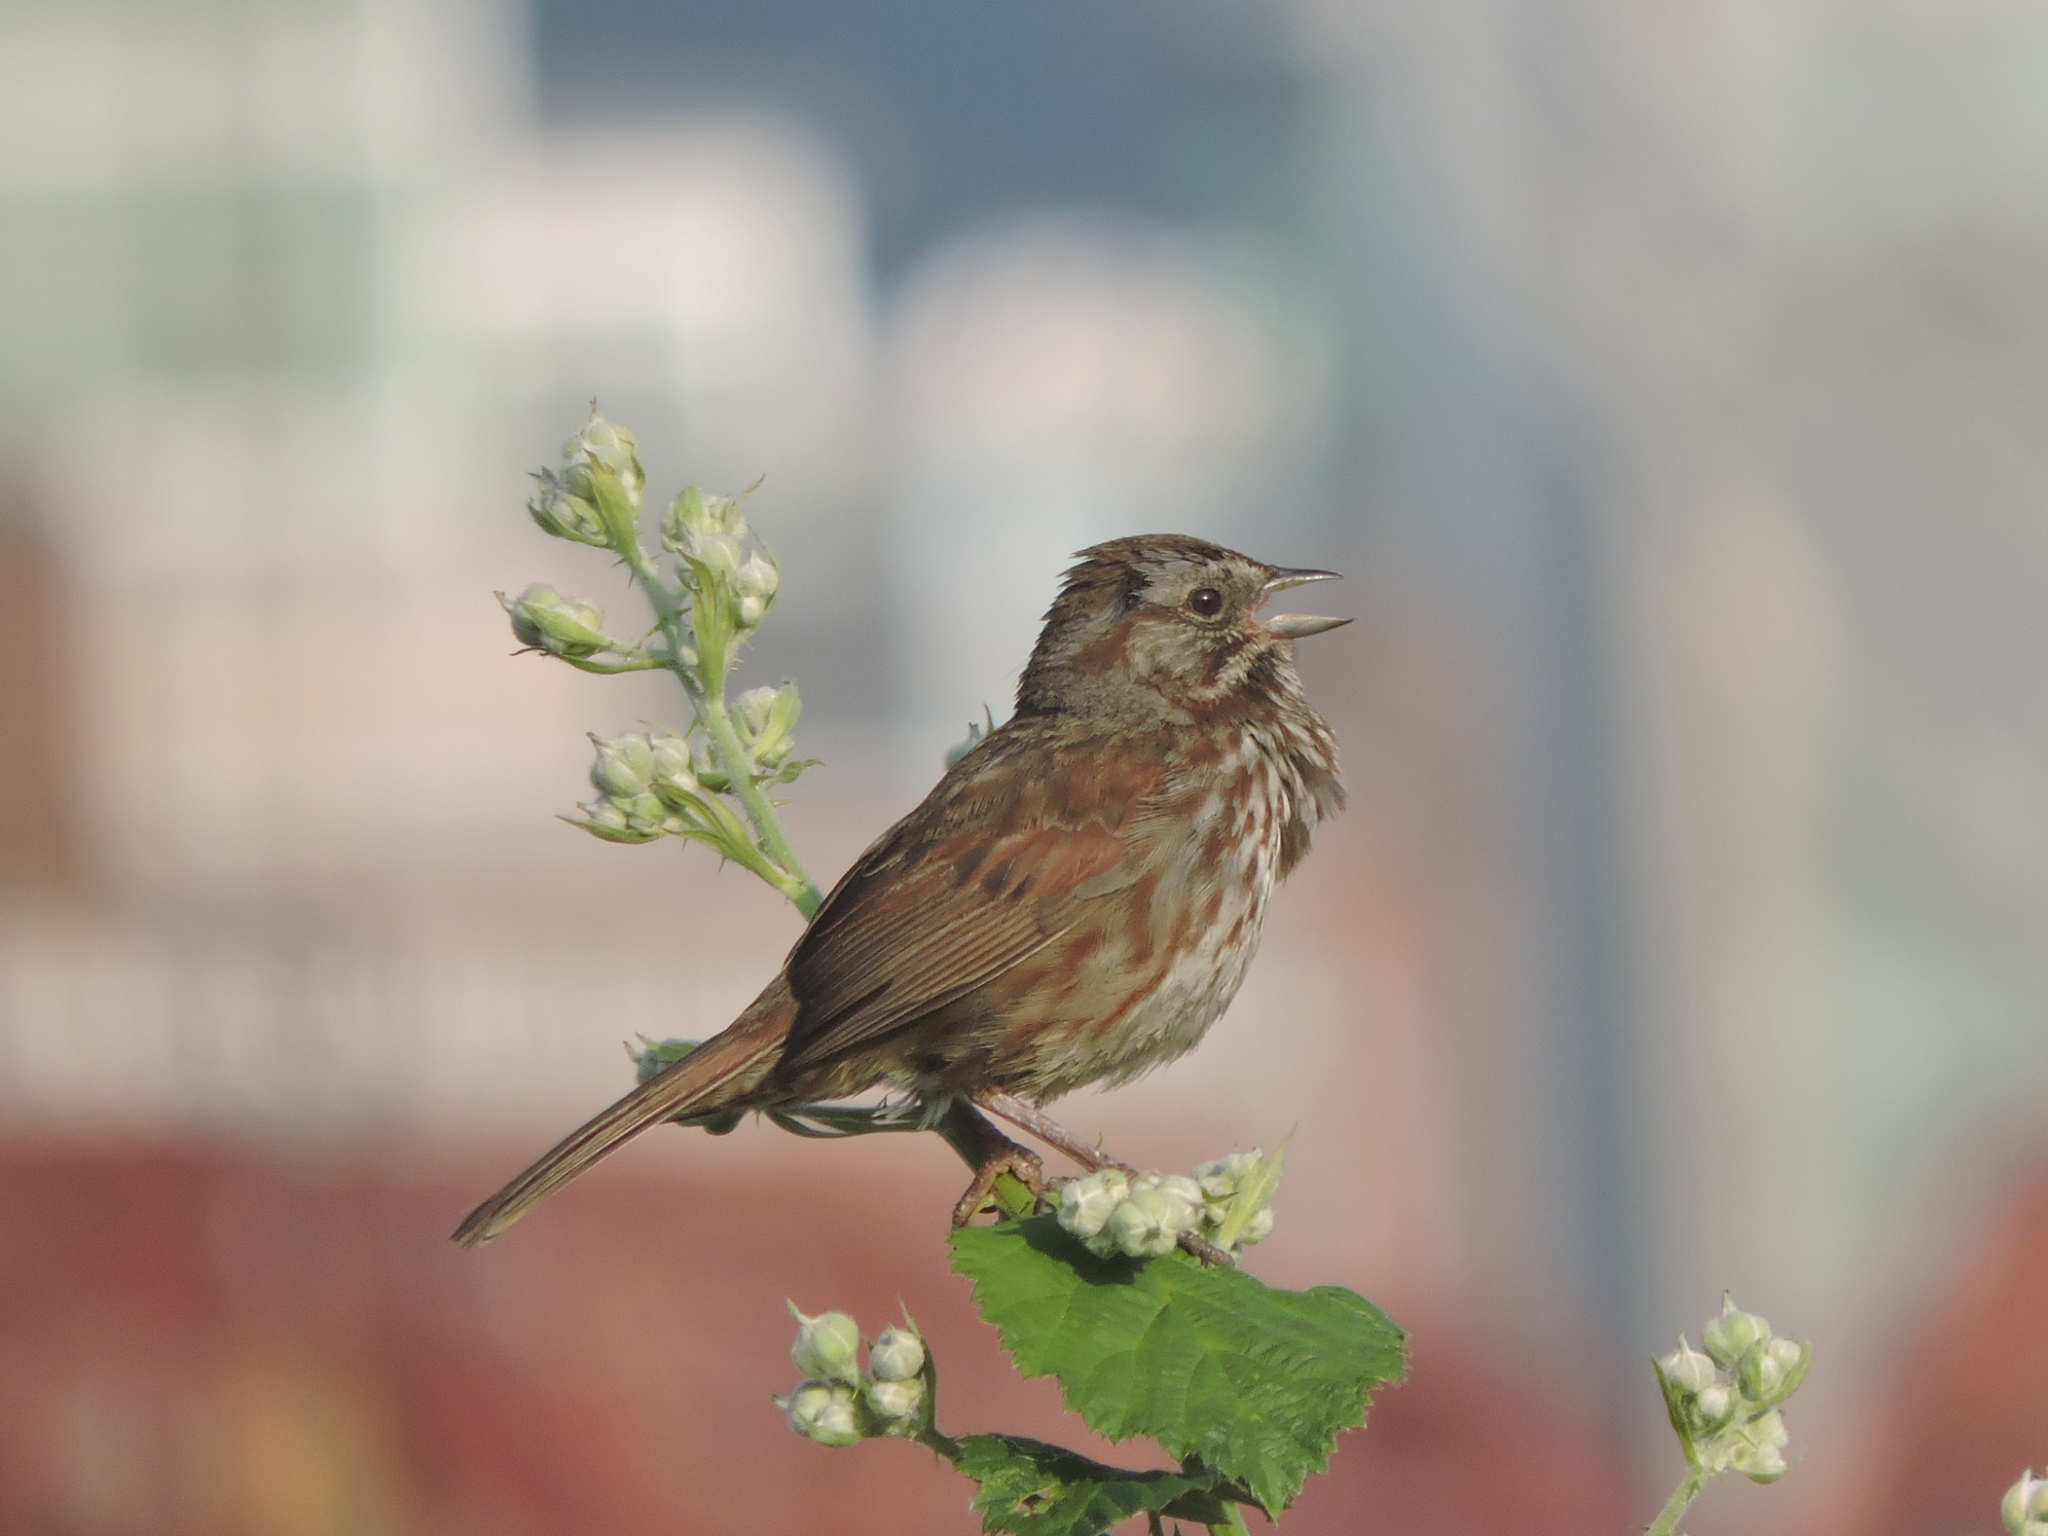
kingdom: Animalia
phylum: Chordata
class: Aves
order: Passeriformes
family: Passerellidae
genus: Melospiza
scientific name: Melospiza melodia
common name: Song sparrow
